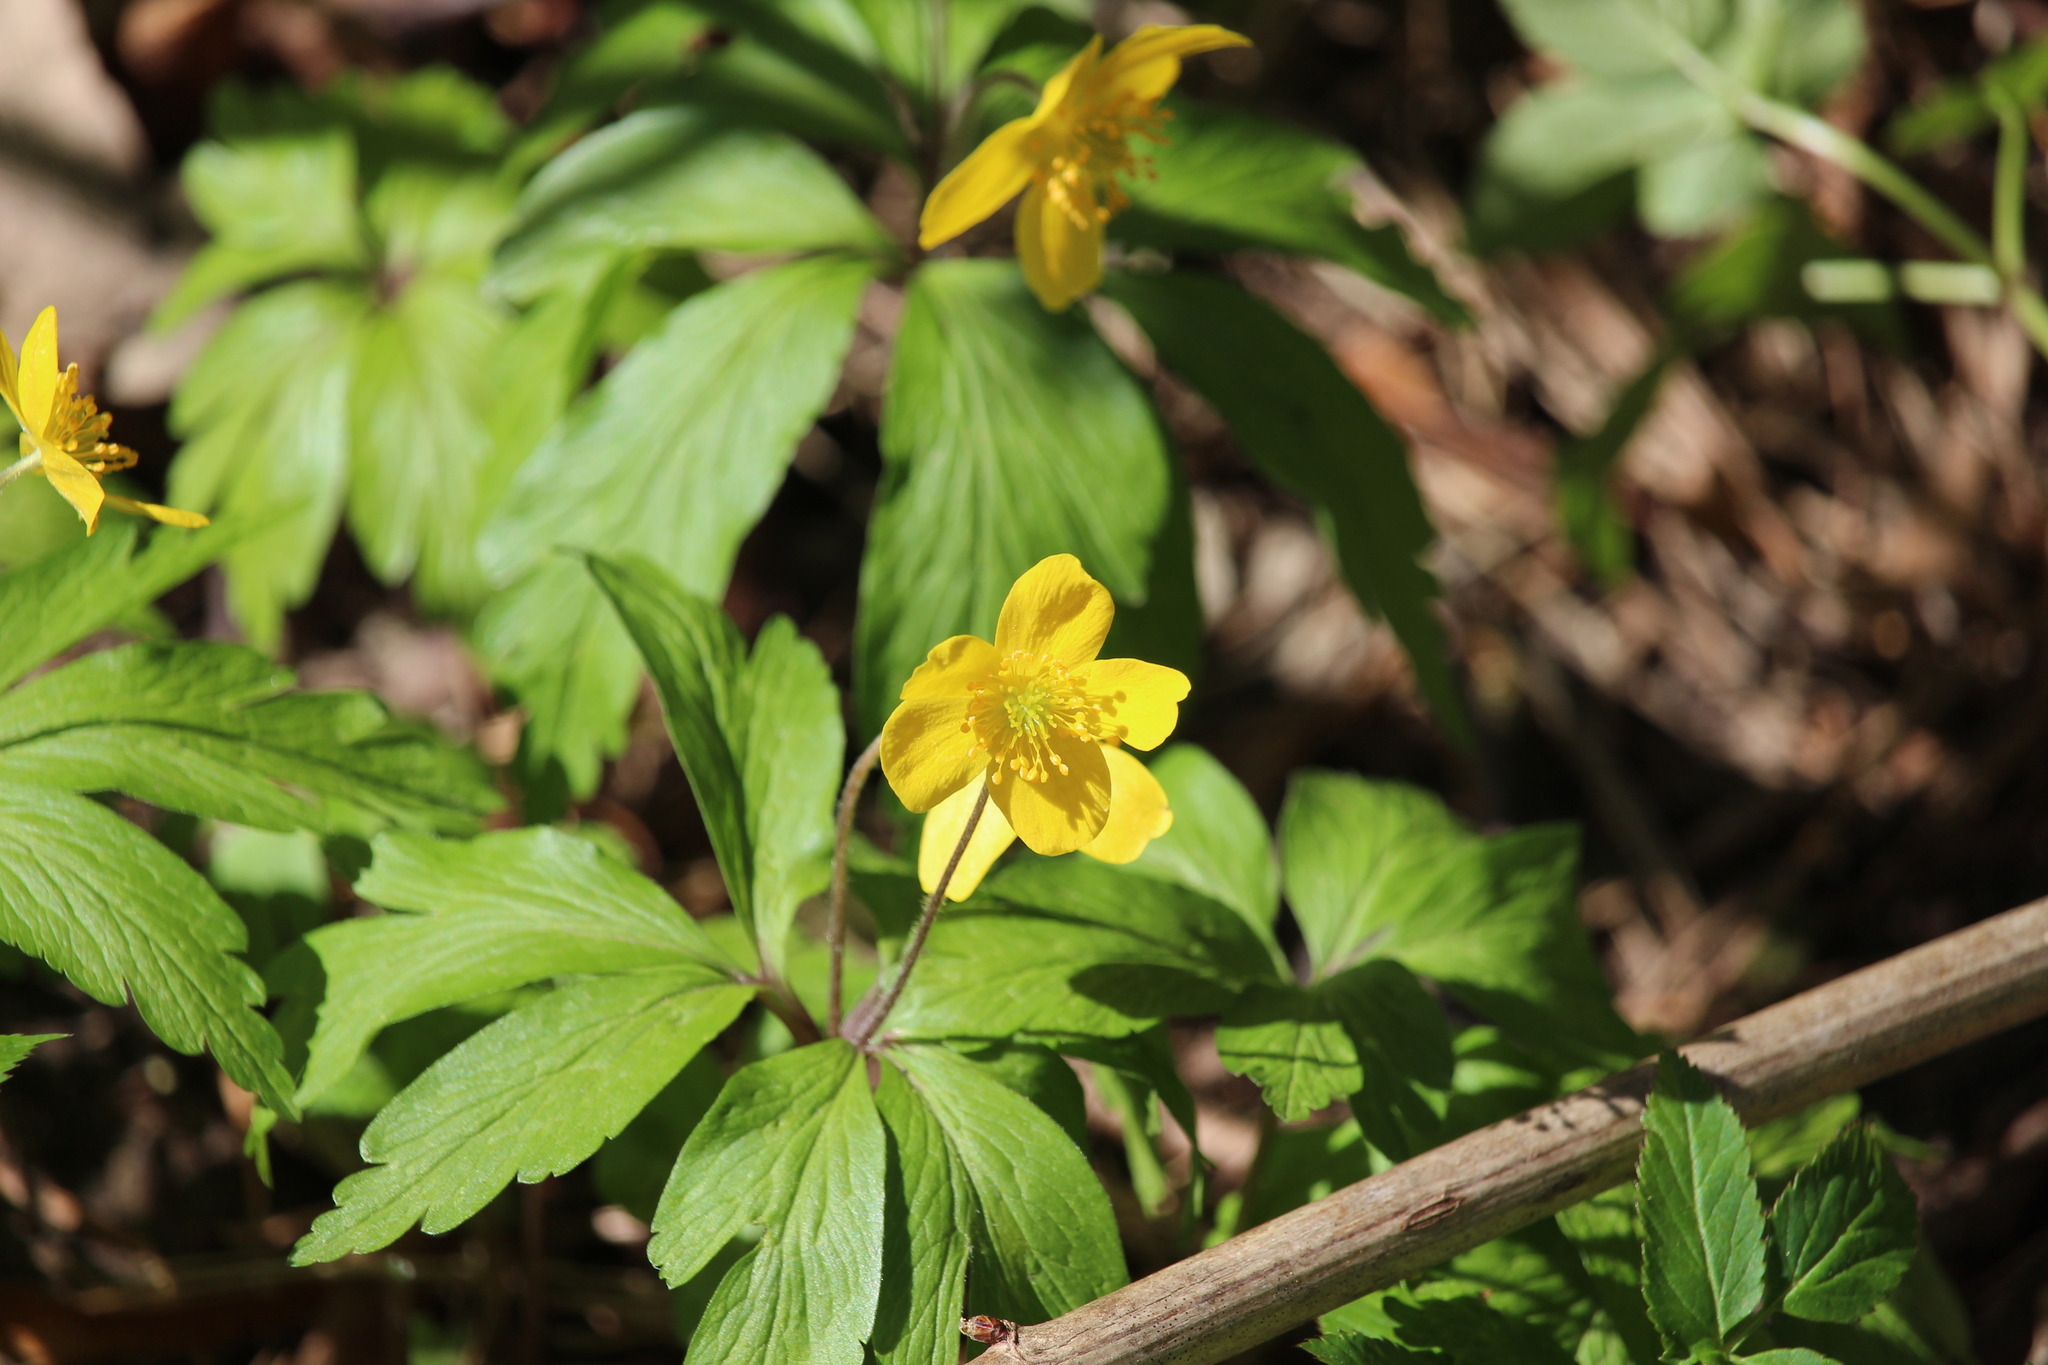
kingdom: Plantae
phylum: Tracheophyta
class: Magnoliopsida
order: Ranunculales
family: Ranunculaceae
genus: Anemone
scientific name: Anemone ranunculoides
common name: Yellow anemone
